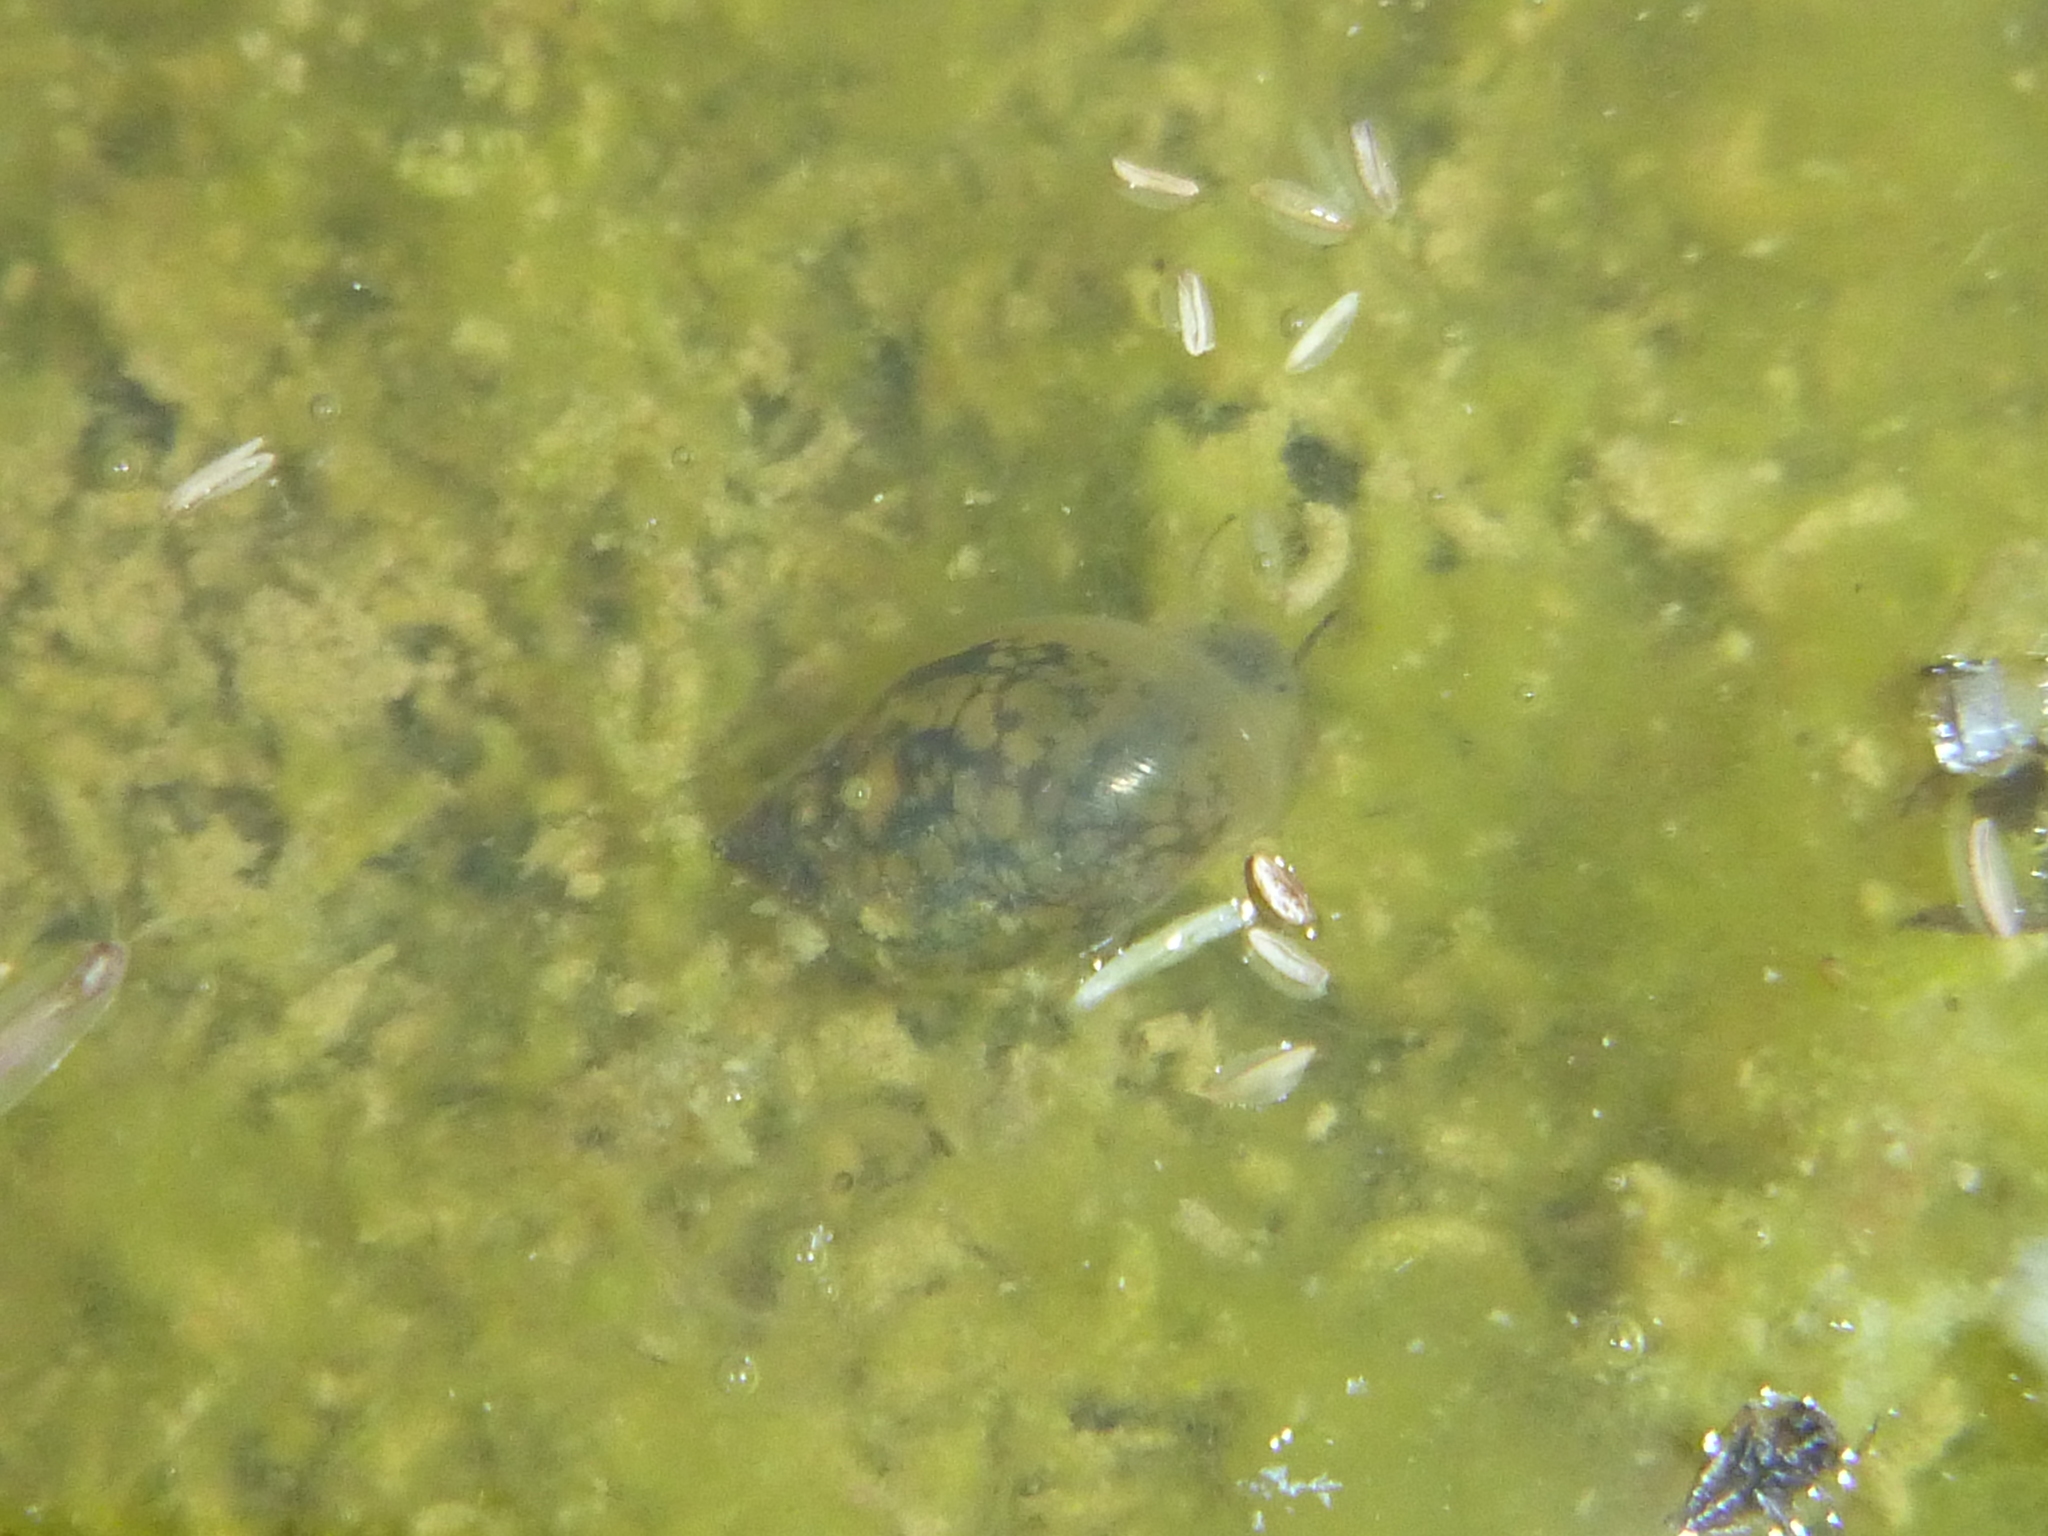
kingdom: Animalia
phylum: Mollusca
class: Gastropoda
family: Physidae
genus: Physella
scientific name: Physella acuta
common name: European physa
